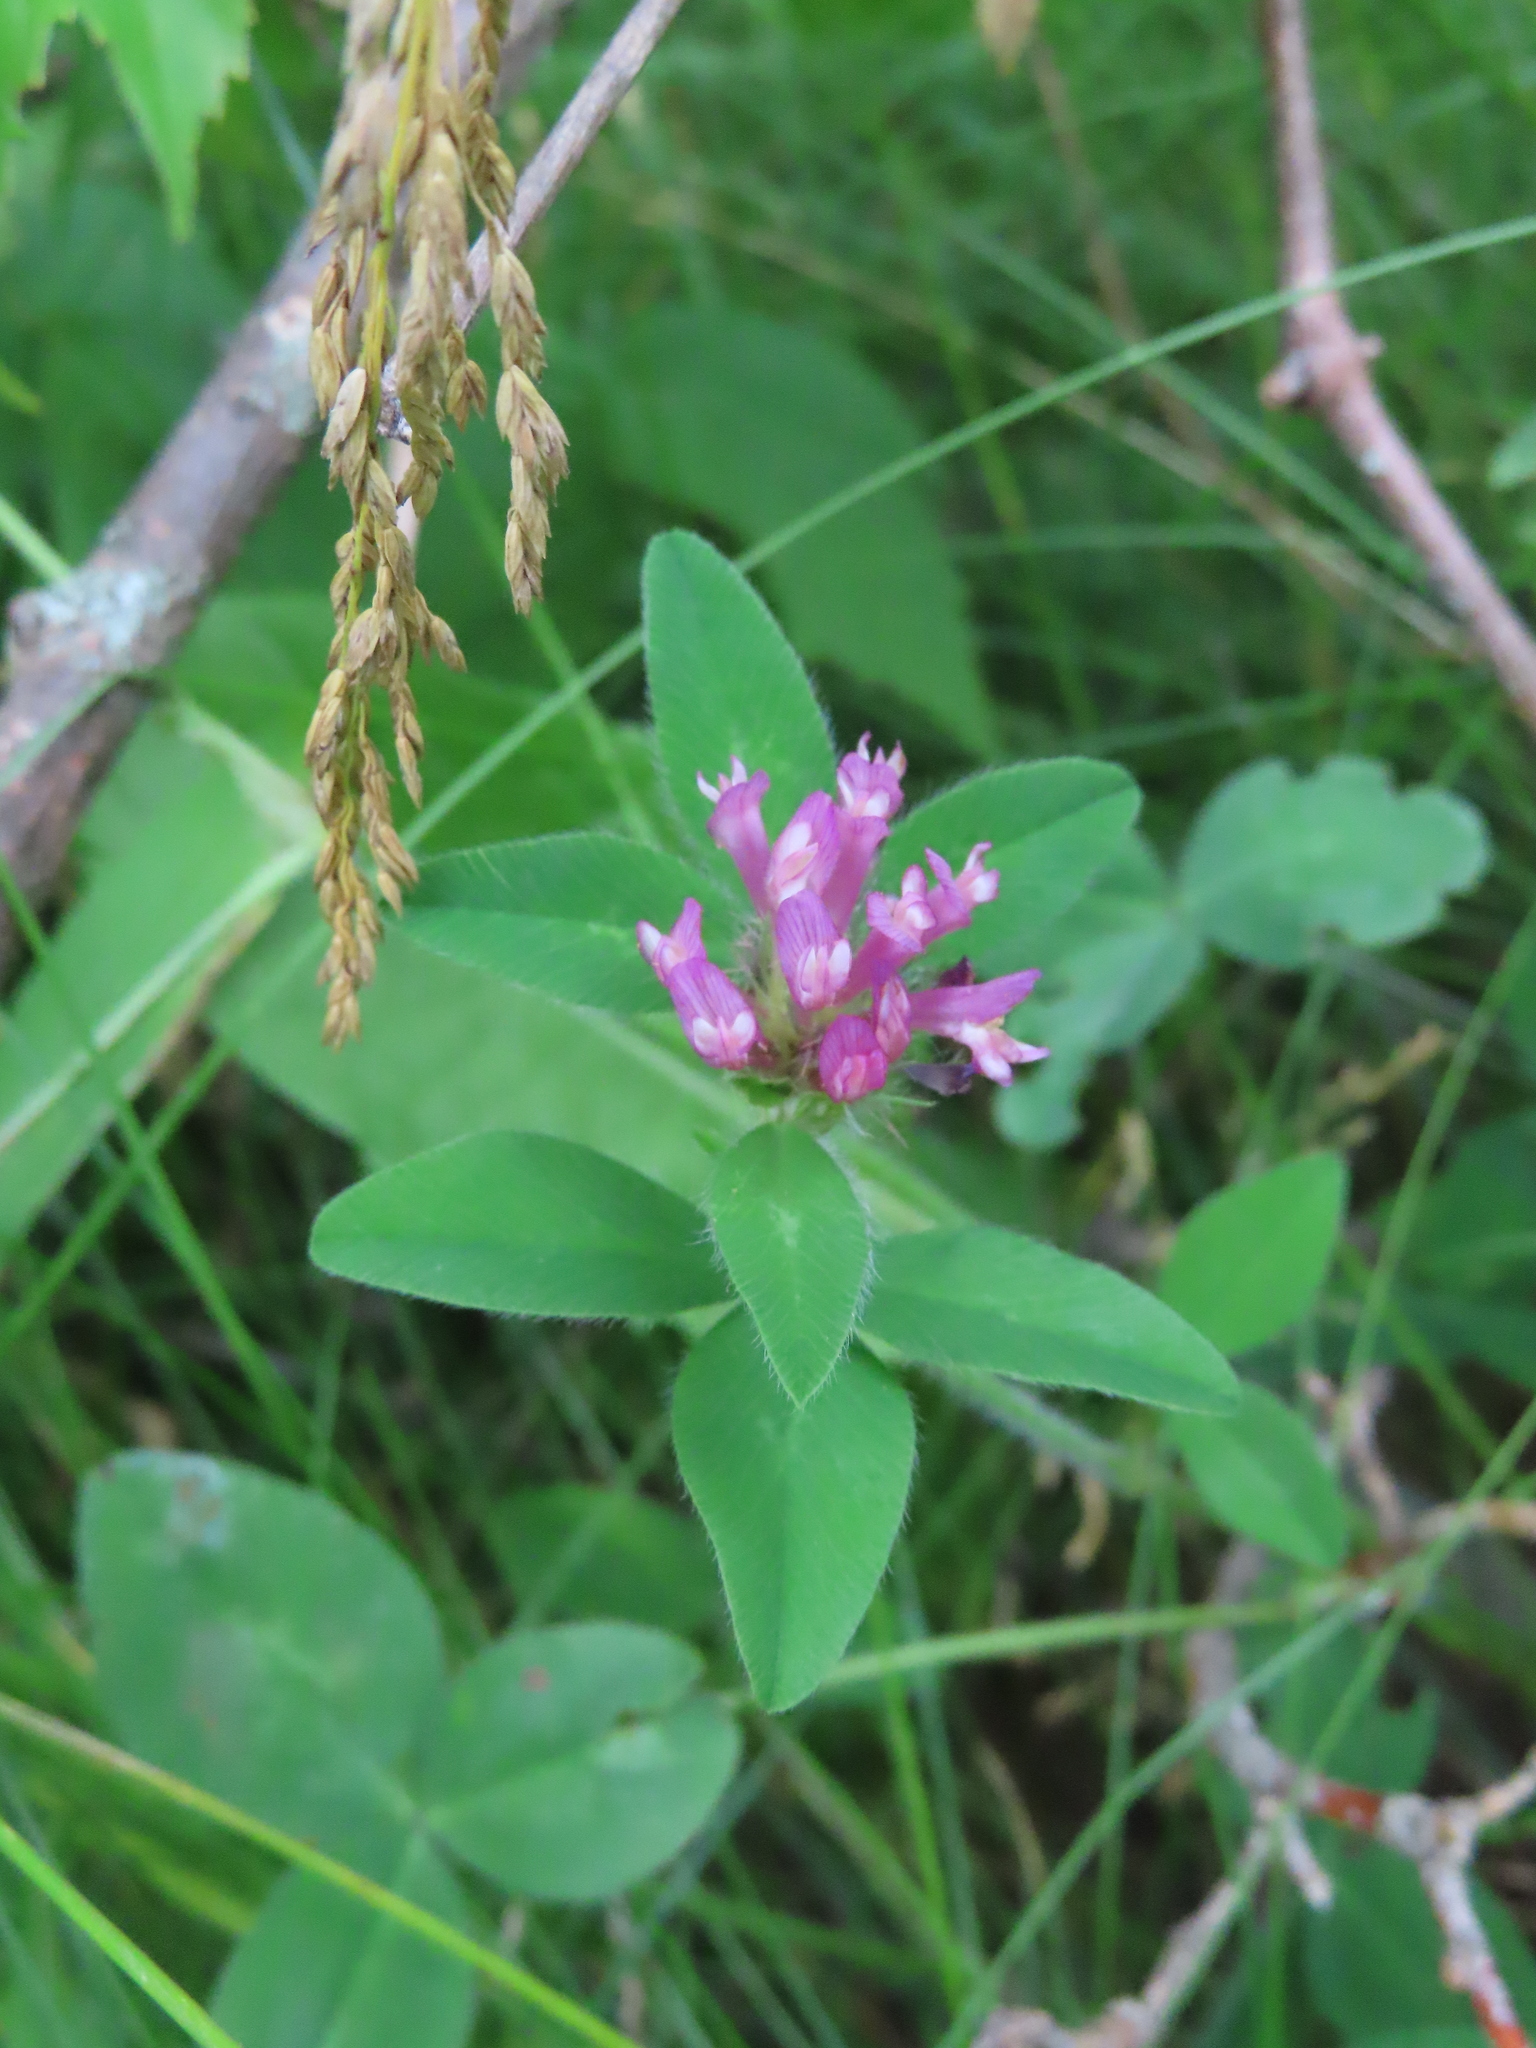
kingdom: Plantae
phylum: Tracheophyta
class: Magnoliopsida
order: Fabales
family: Fabaceae
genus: Trifolium
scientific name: Trifolium pratense
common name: Red clover
